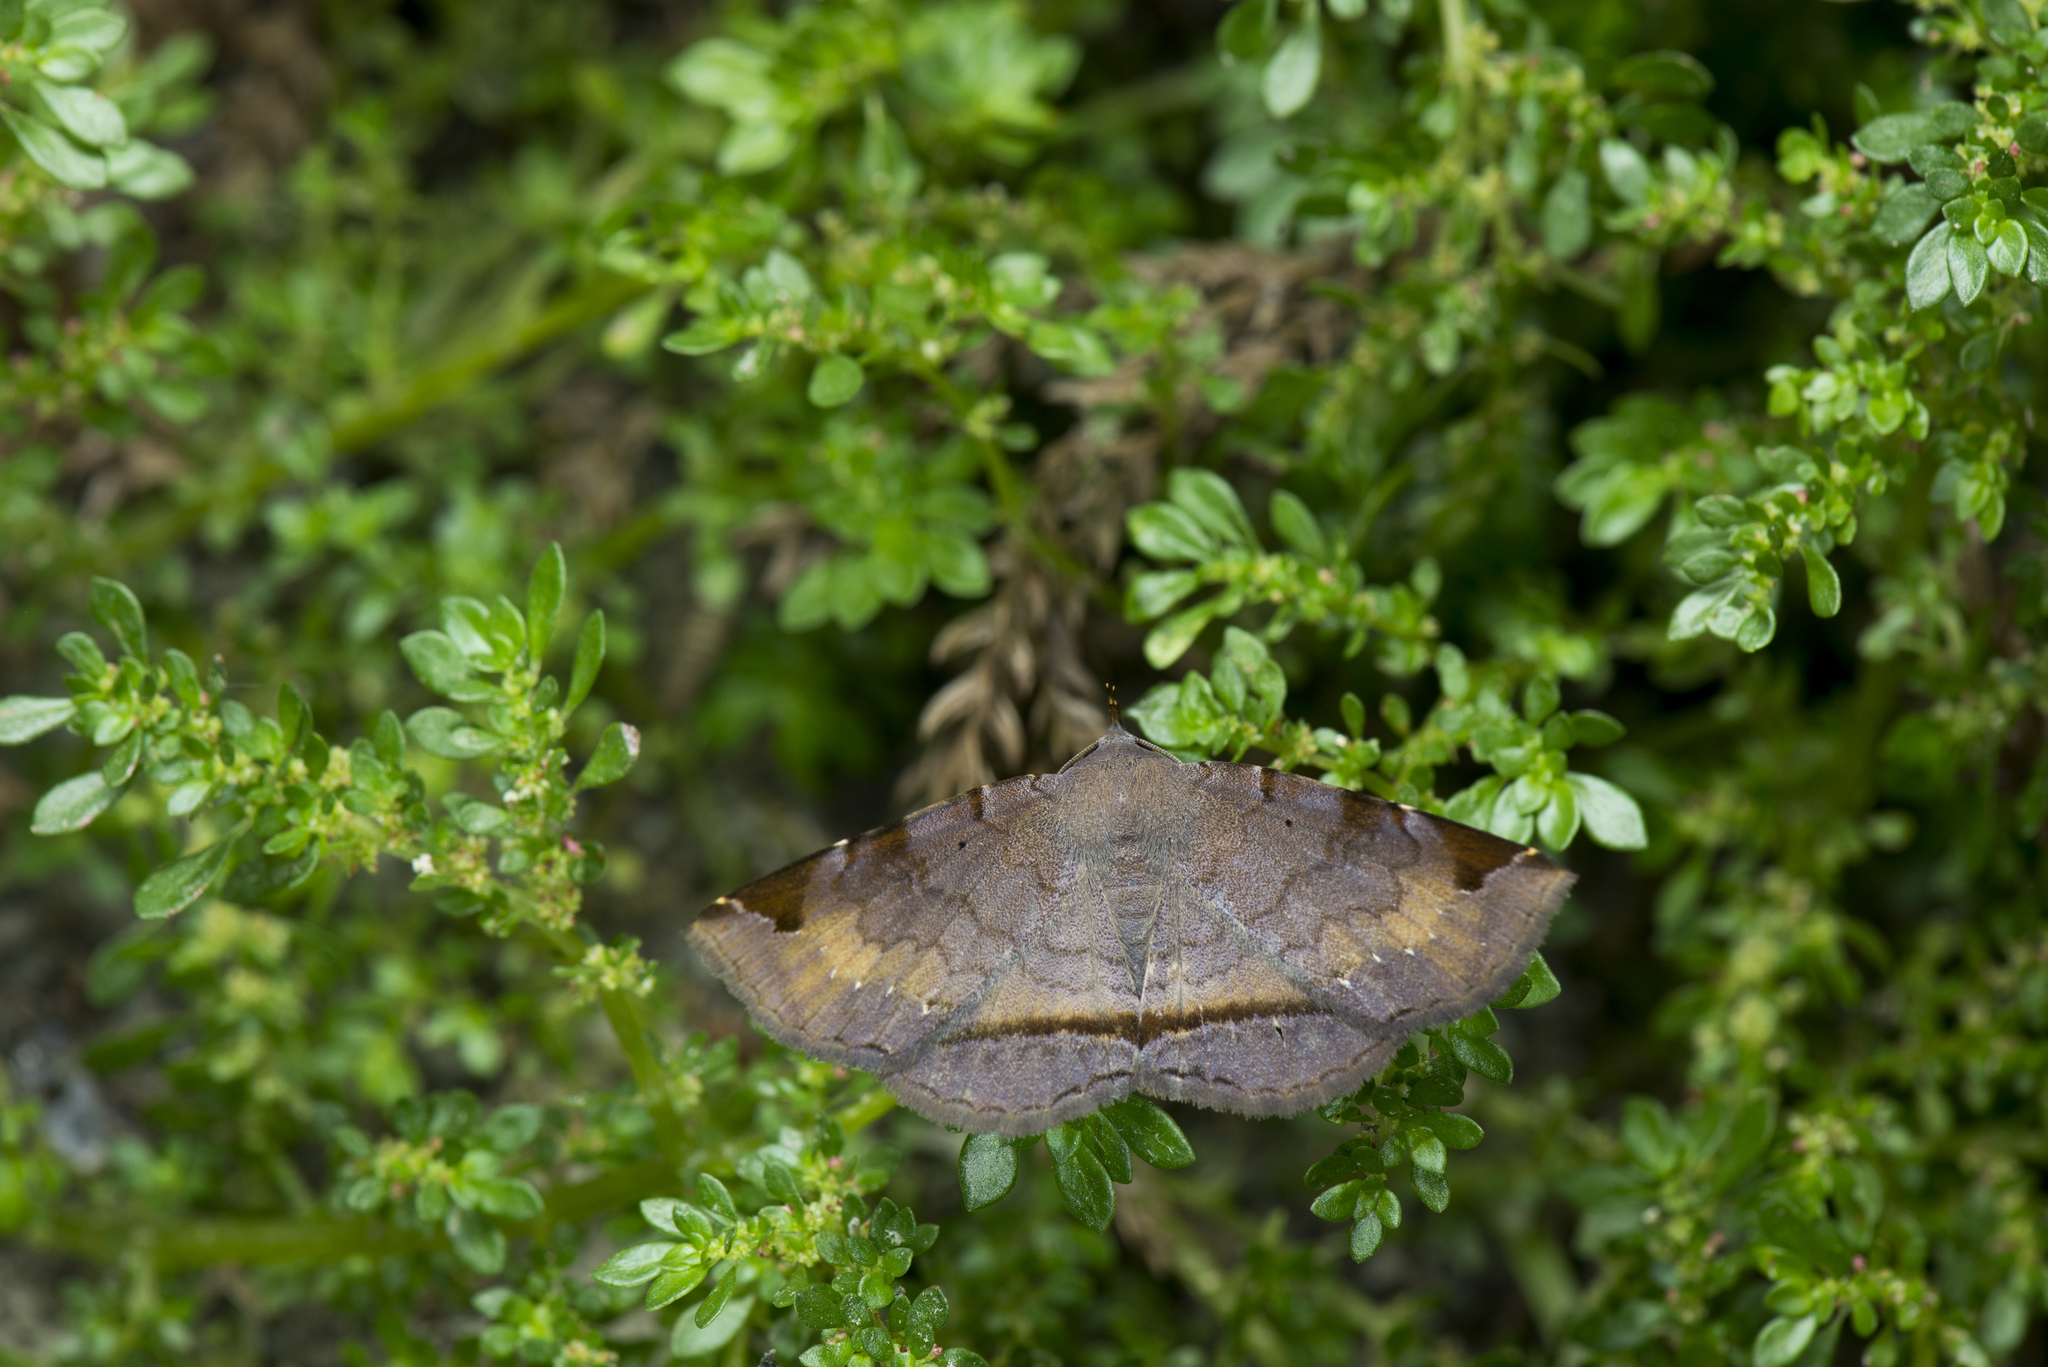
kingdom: Animalia
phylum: Arthropoda
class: Insecta
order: Lepidoptera
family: Erebidae
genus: Mecodina
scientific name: Mecodina subcostalis
